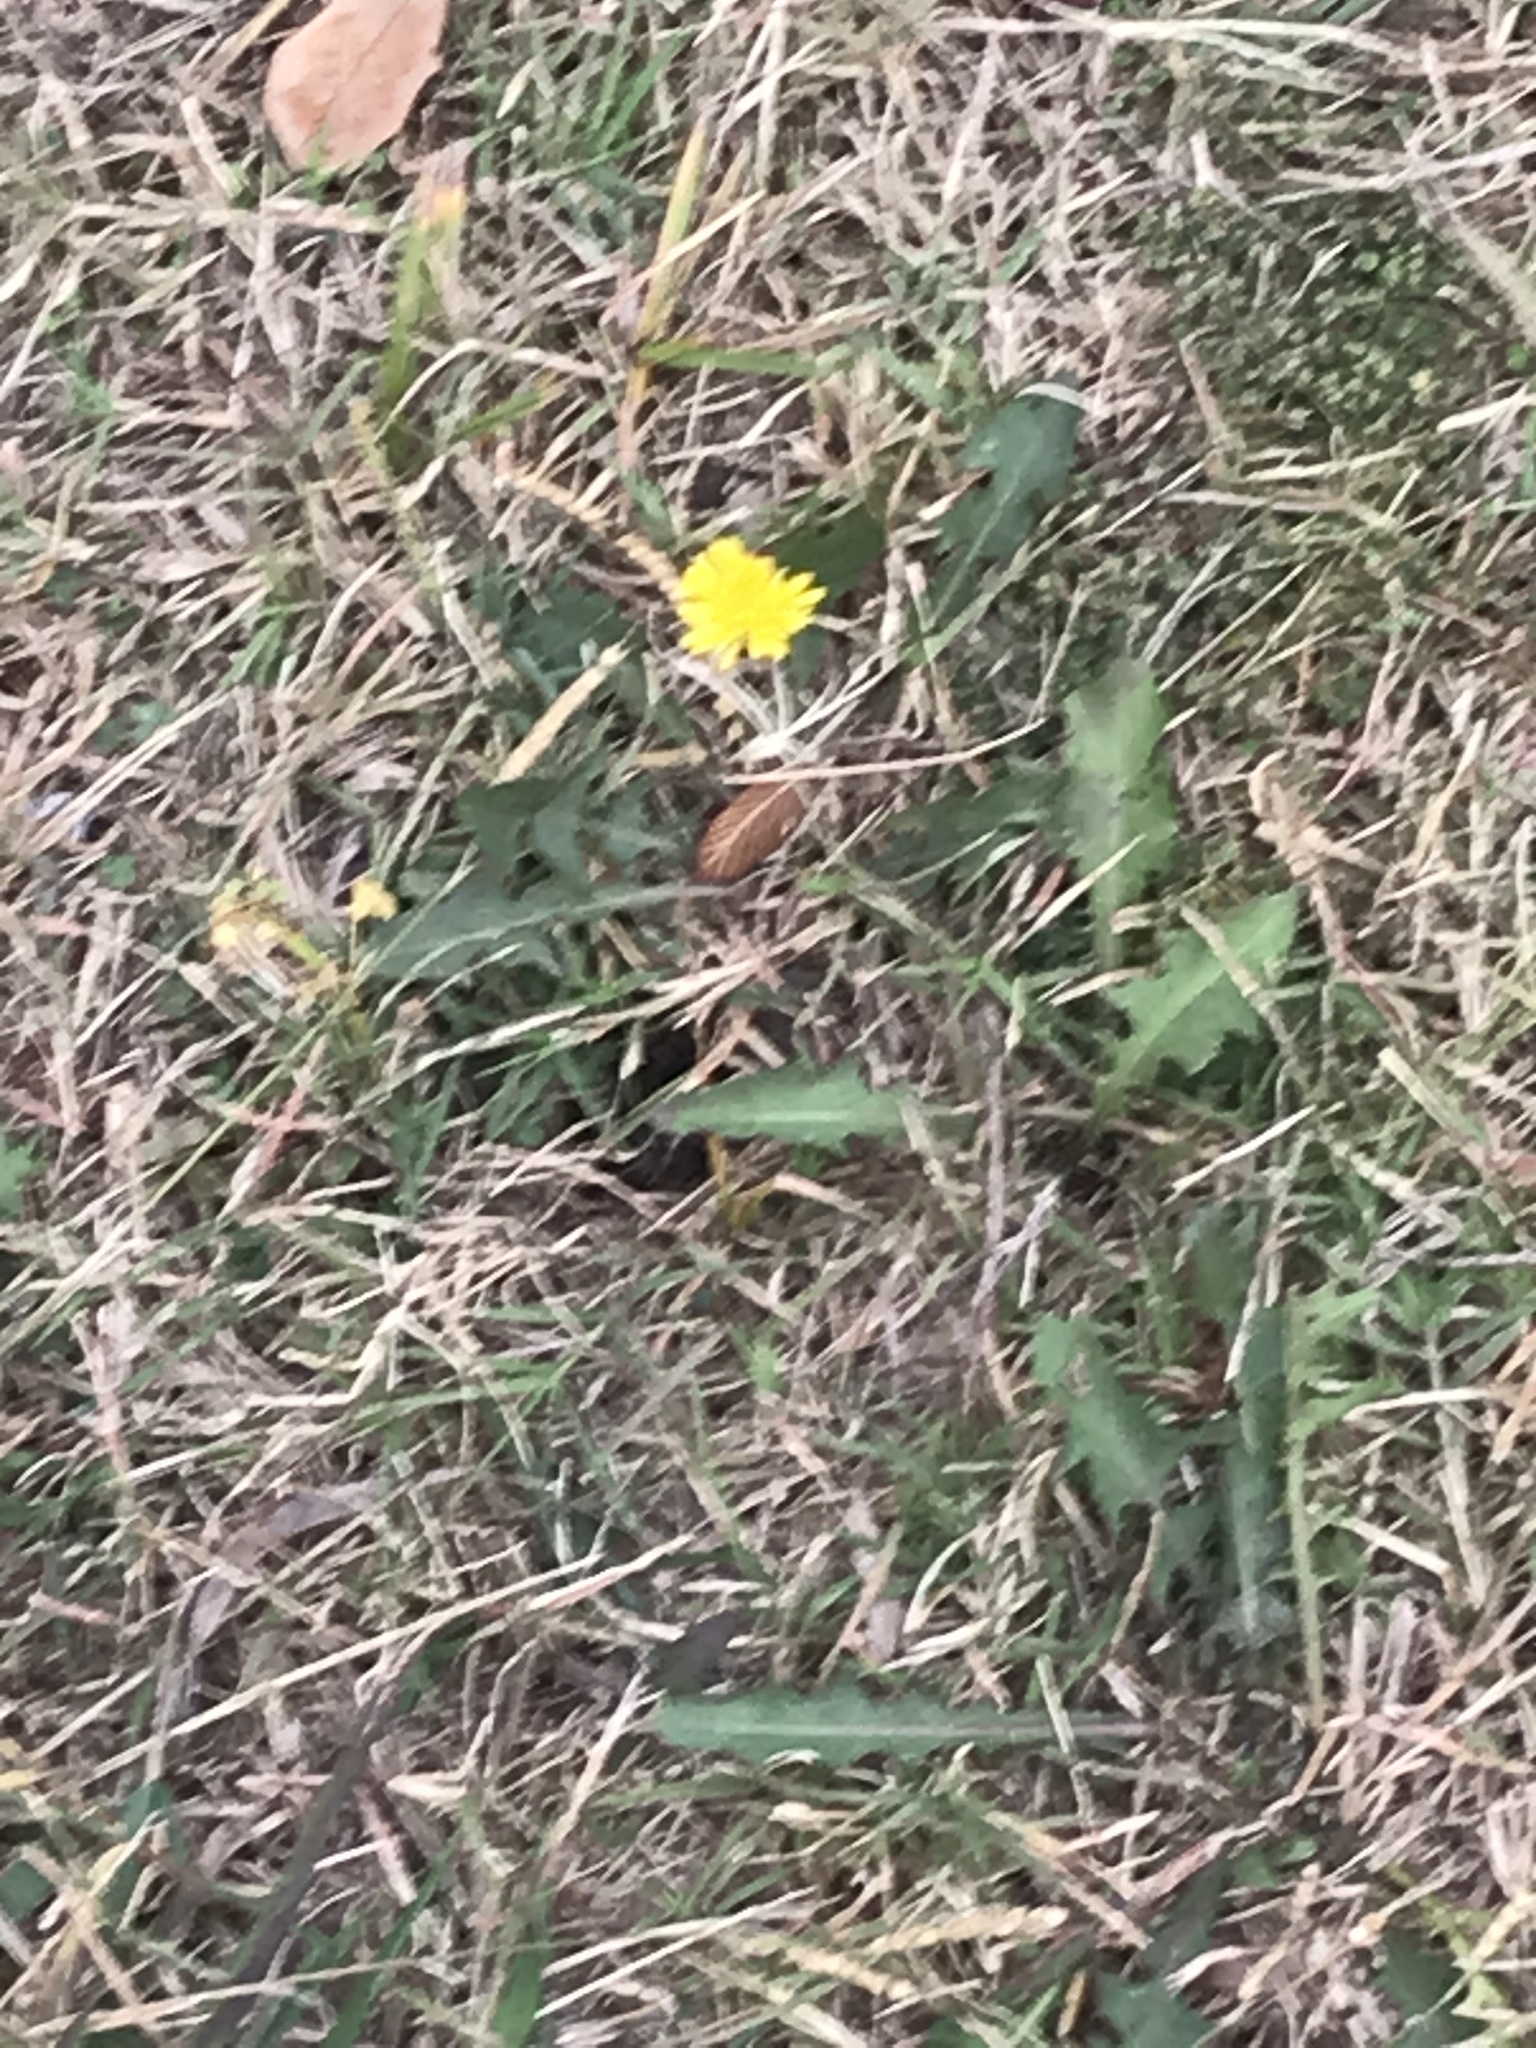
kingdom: Plantae
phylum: Tracheophyta
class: Magnoliopsida
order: Asterales
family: Asteraceae
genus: Taraxacum
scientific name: Taraxacum officinale
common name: Common dandelion
